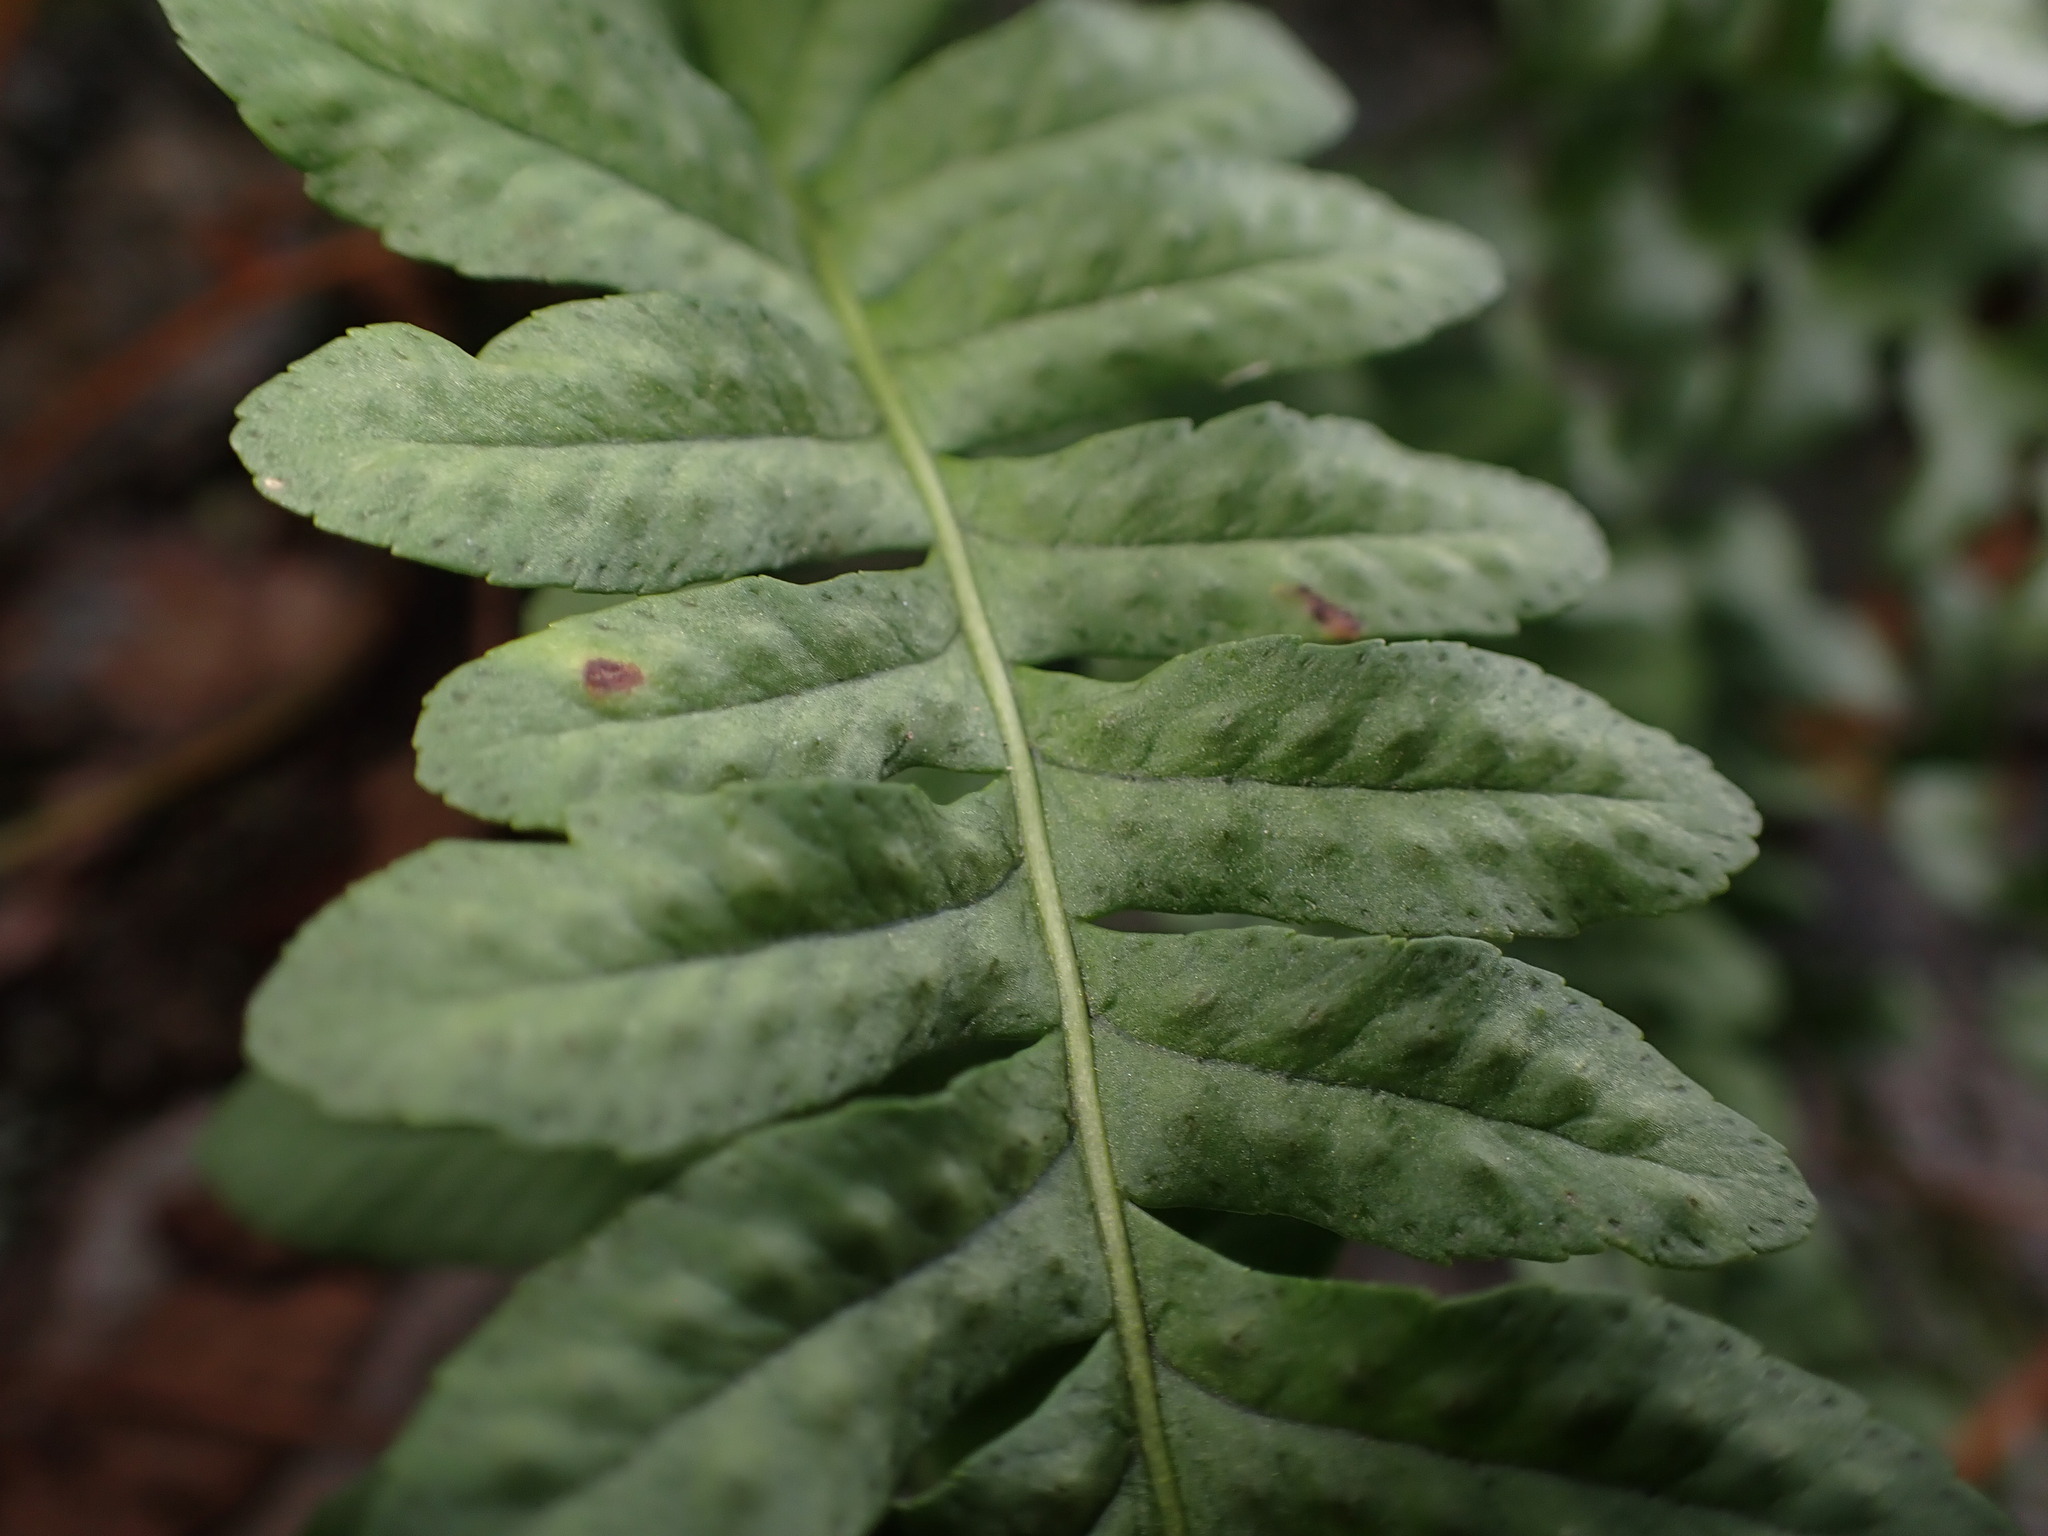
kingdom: Plantae
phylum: Tracheophyta
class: Polypodiopsida
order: Polypodiales
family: Polypodiaceae
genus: Polypodium
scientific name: Polypodium hesperium
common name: Western polypody
